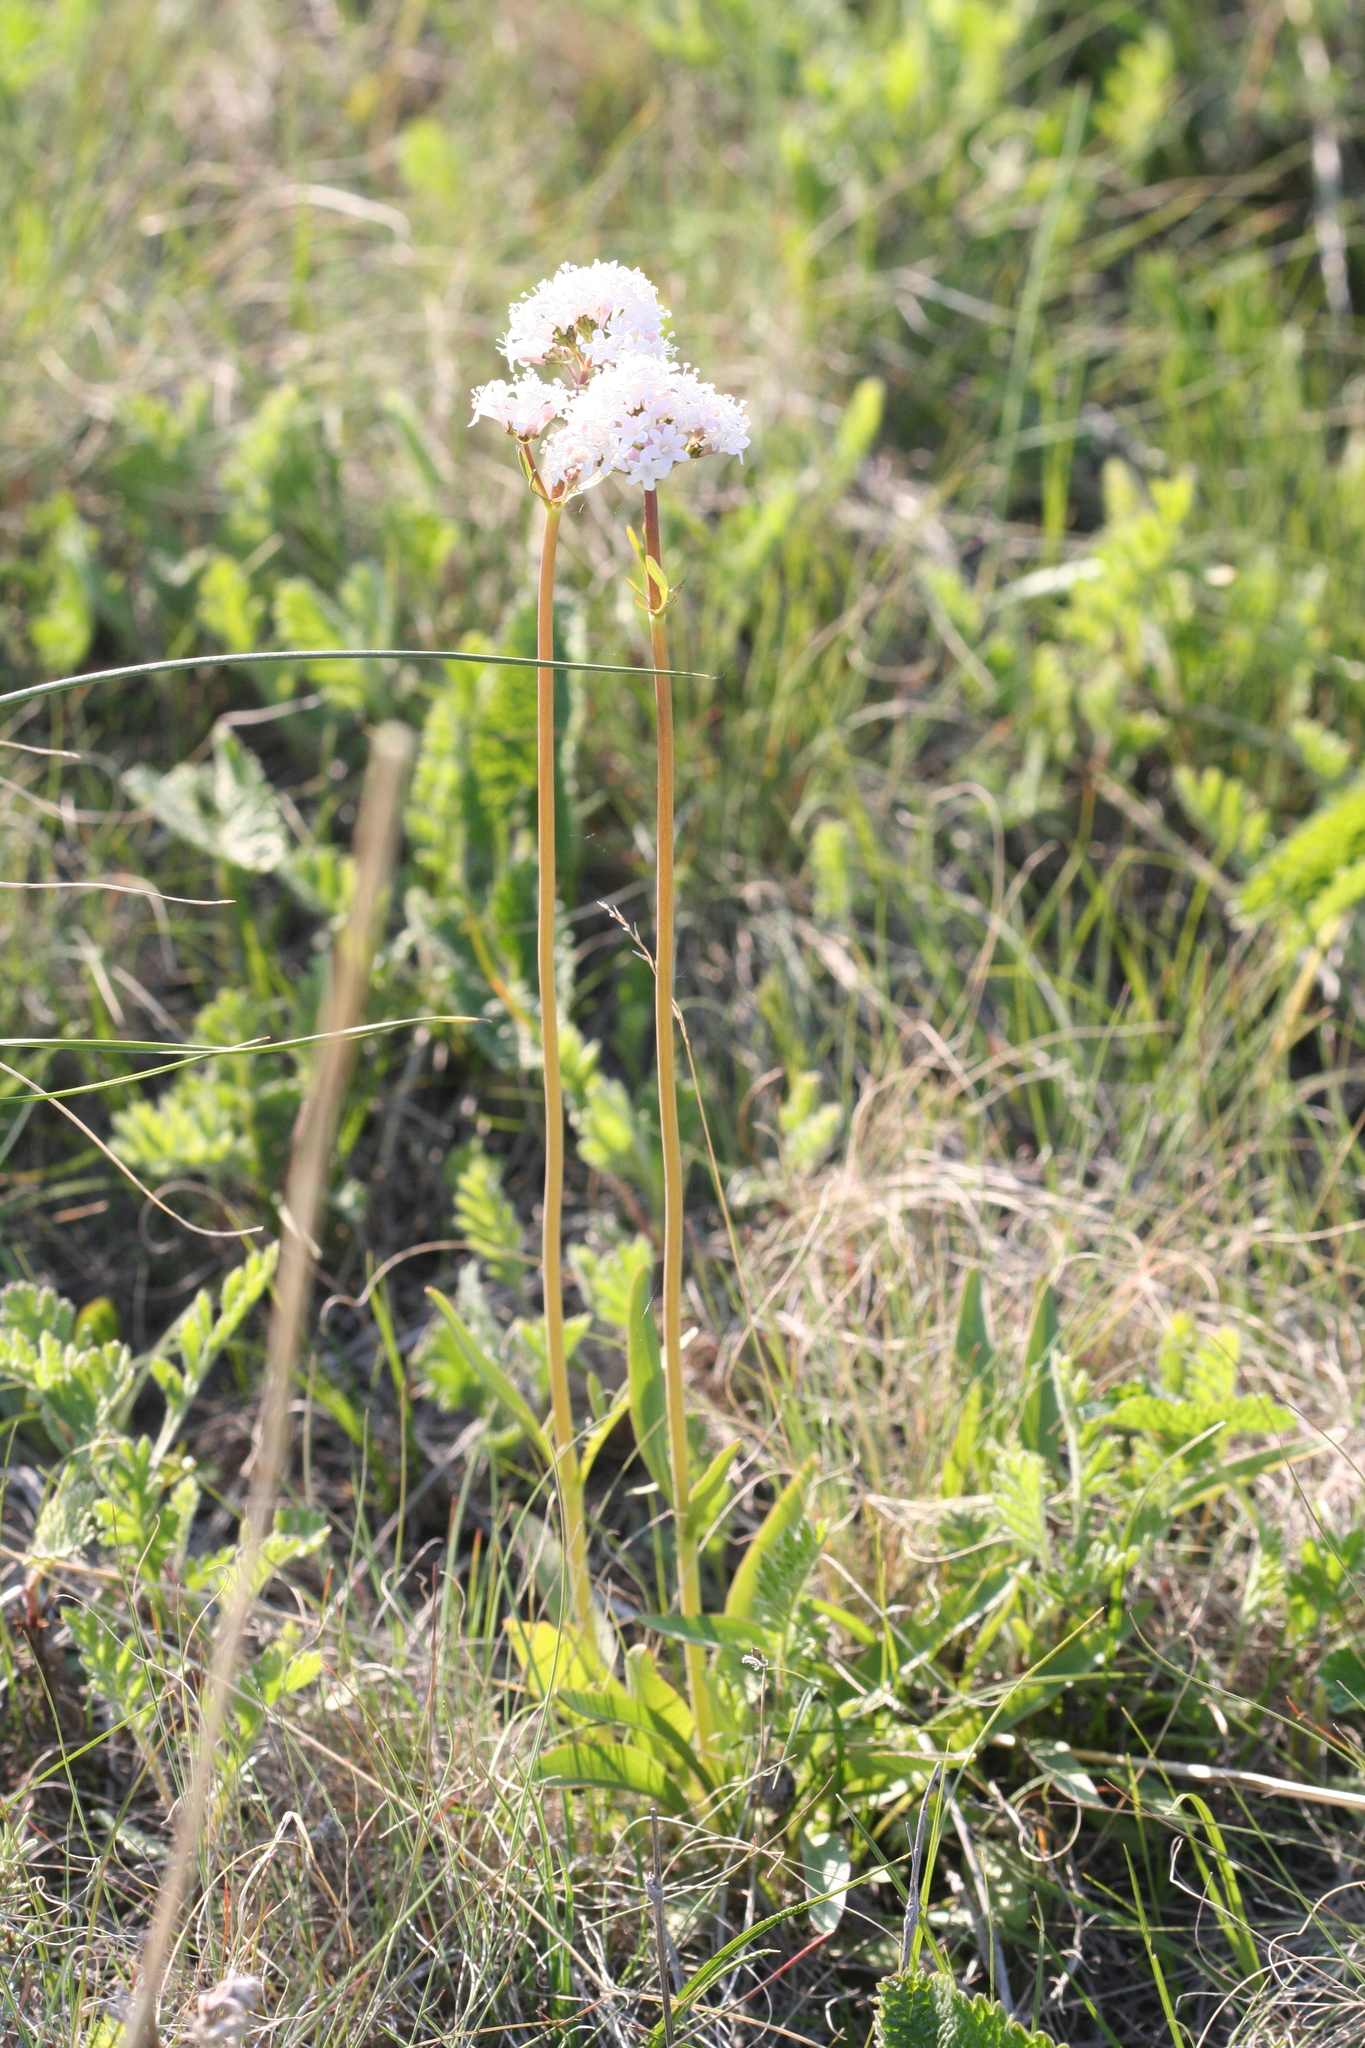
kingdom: Plantae
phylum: Tracheophyta
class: Magnoliopsida
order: Dipsacales
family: Caprifoliaceae
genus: Valeriana
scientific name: Valeriana tuberosa
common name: Tuberous valerian
